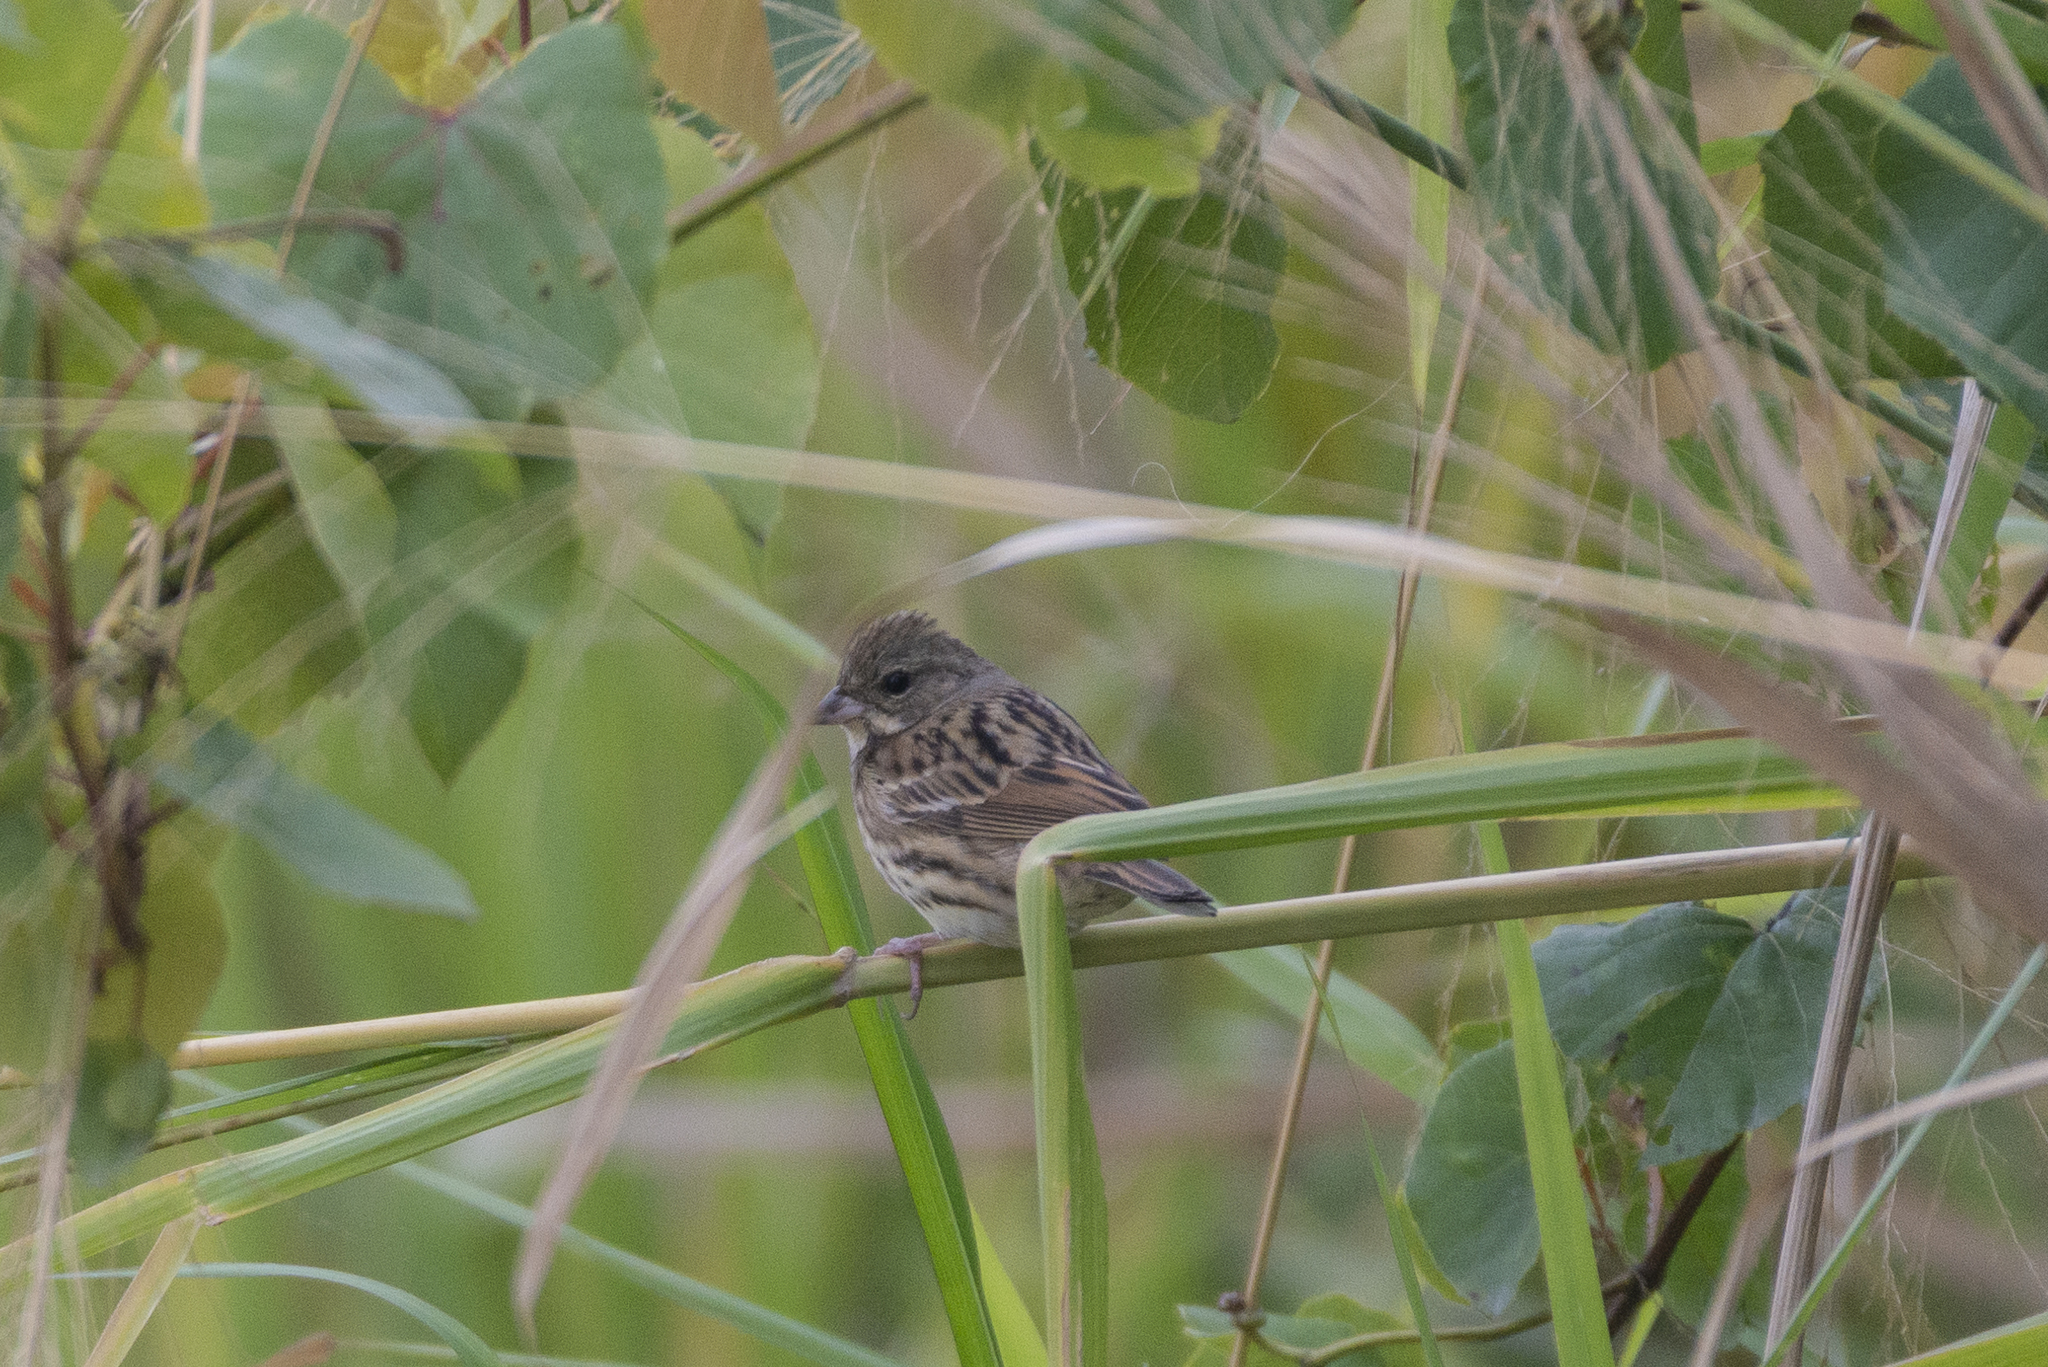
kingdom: Animalia
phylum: Chordata
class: Aves
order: Passeriformes
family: Emberizidae
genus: Emberiza
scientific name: Emberiza spodocephala
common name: Black-faced bunting
